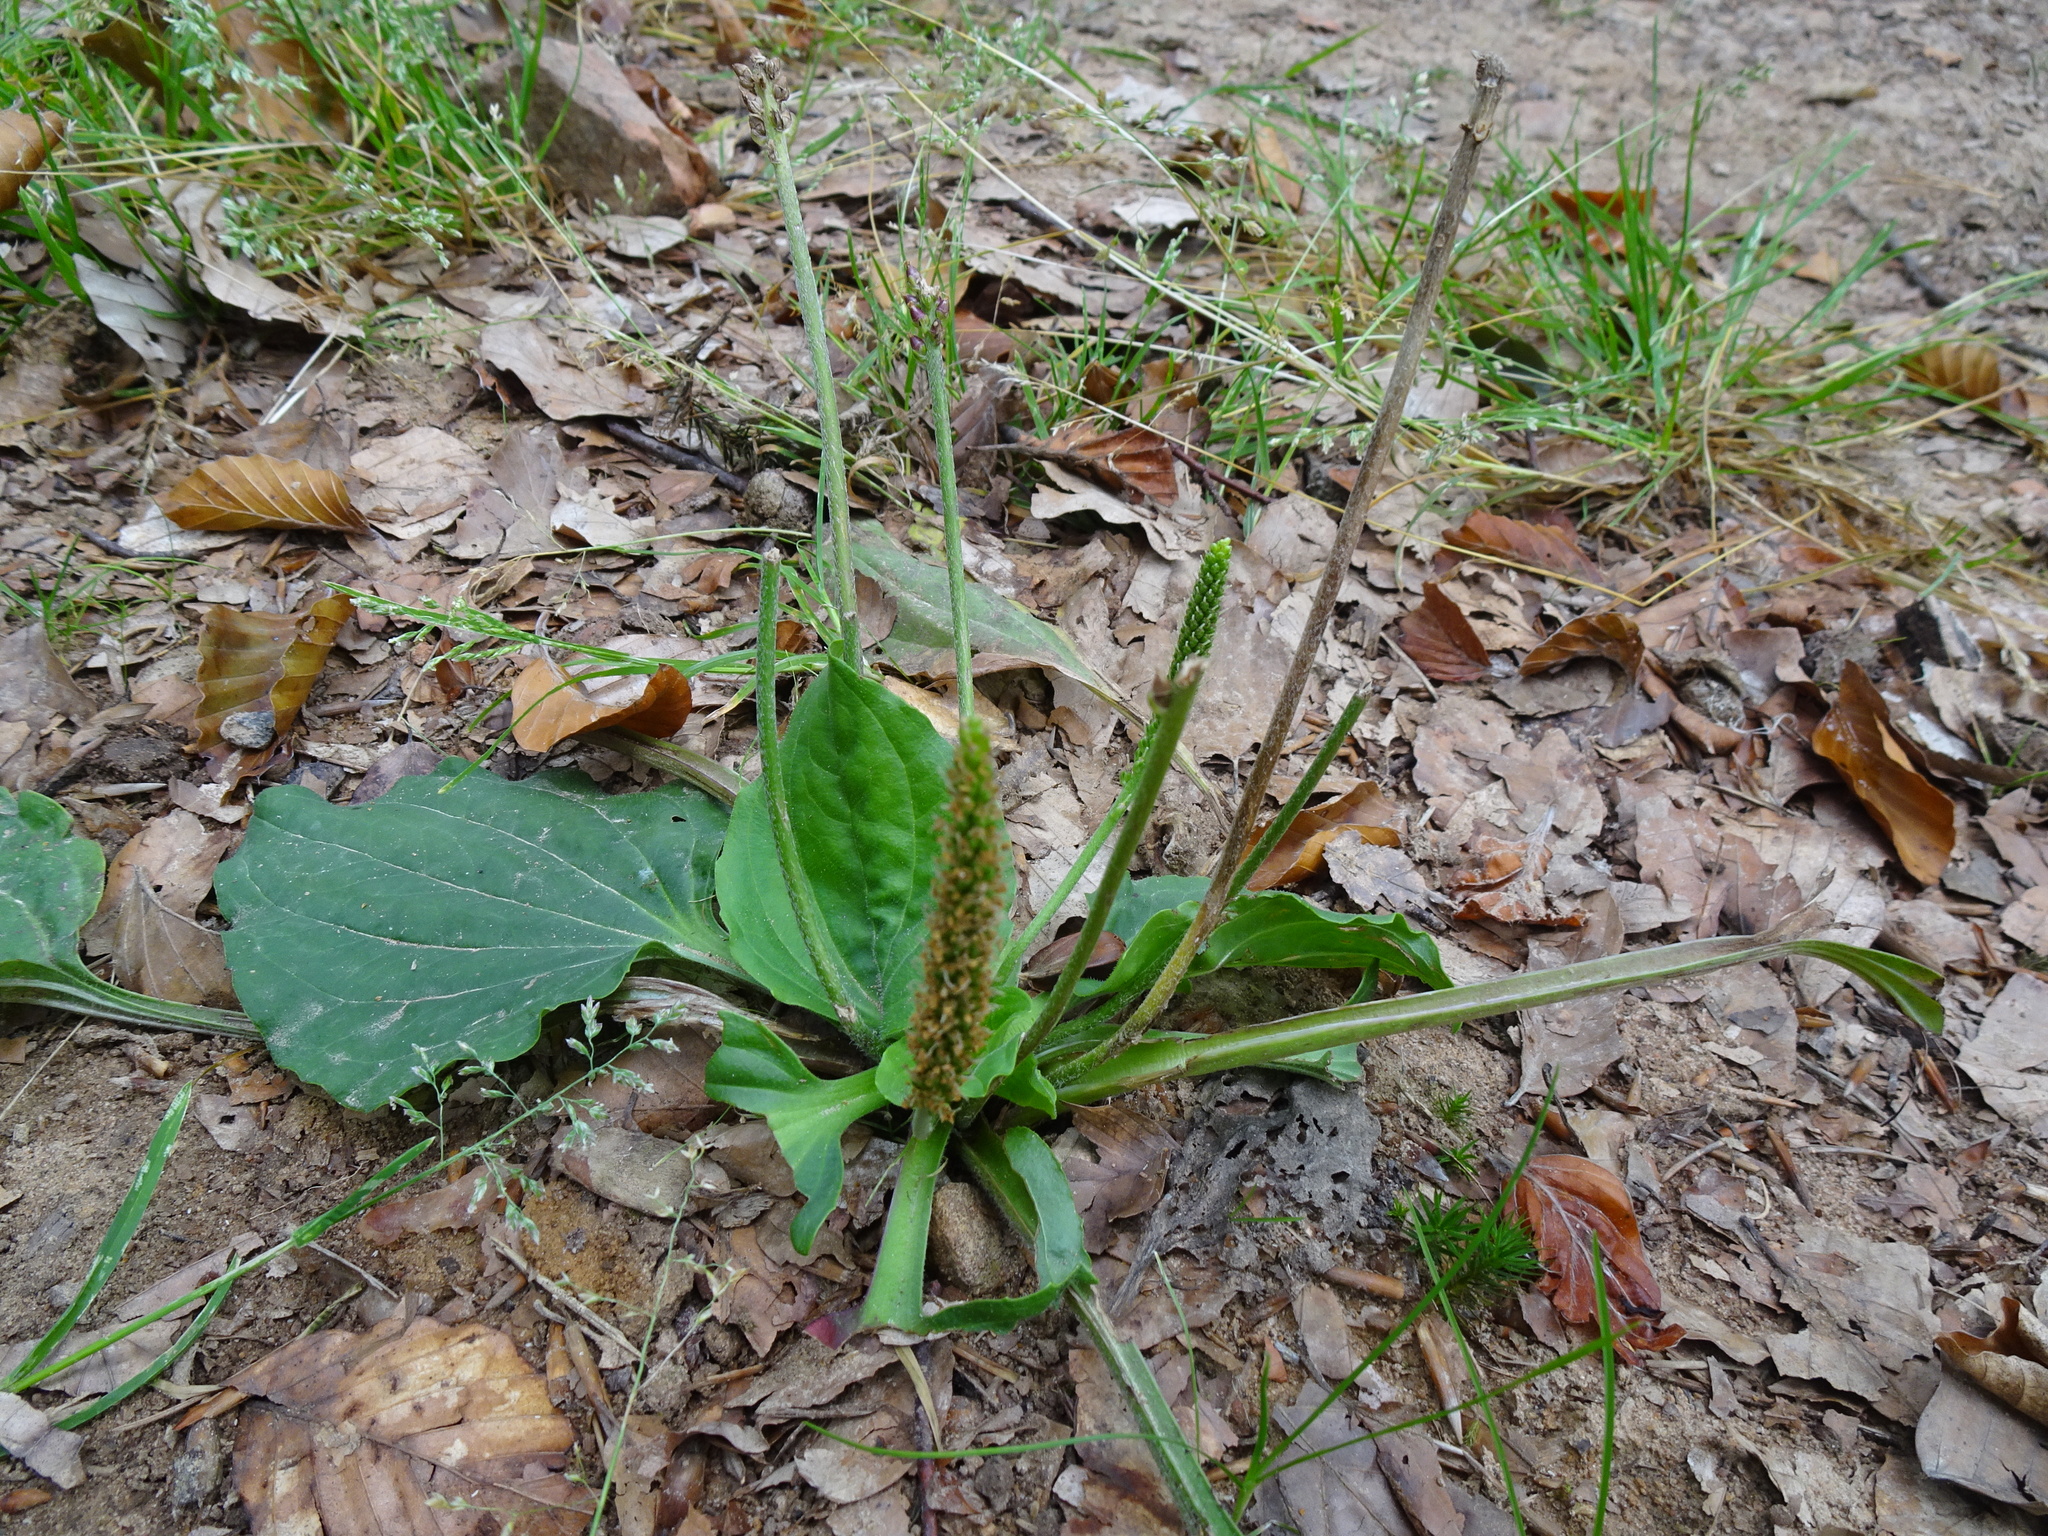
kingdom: Plantae
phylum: Tracheophyta
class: Magnoliopsida
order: Lamiales
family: Plantaginaceae
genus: Plantago
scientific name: Plantago major
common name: Common plantain
